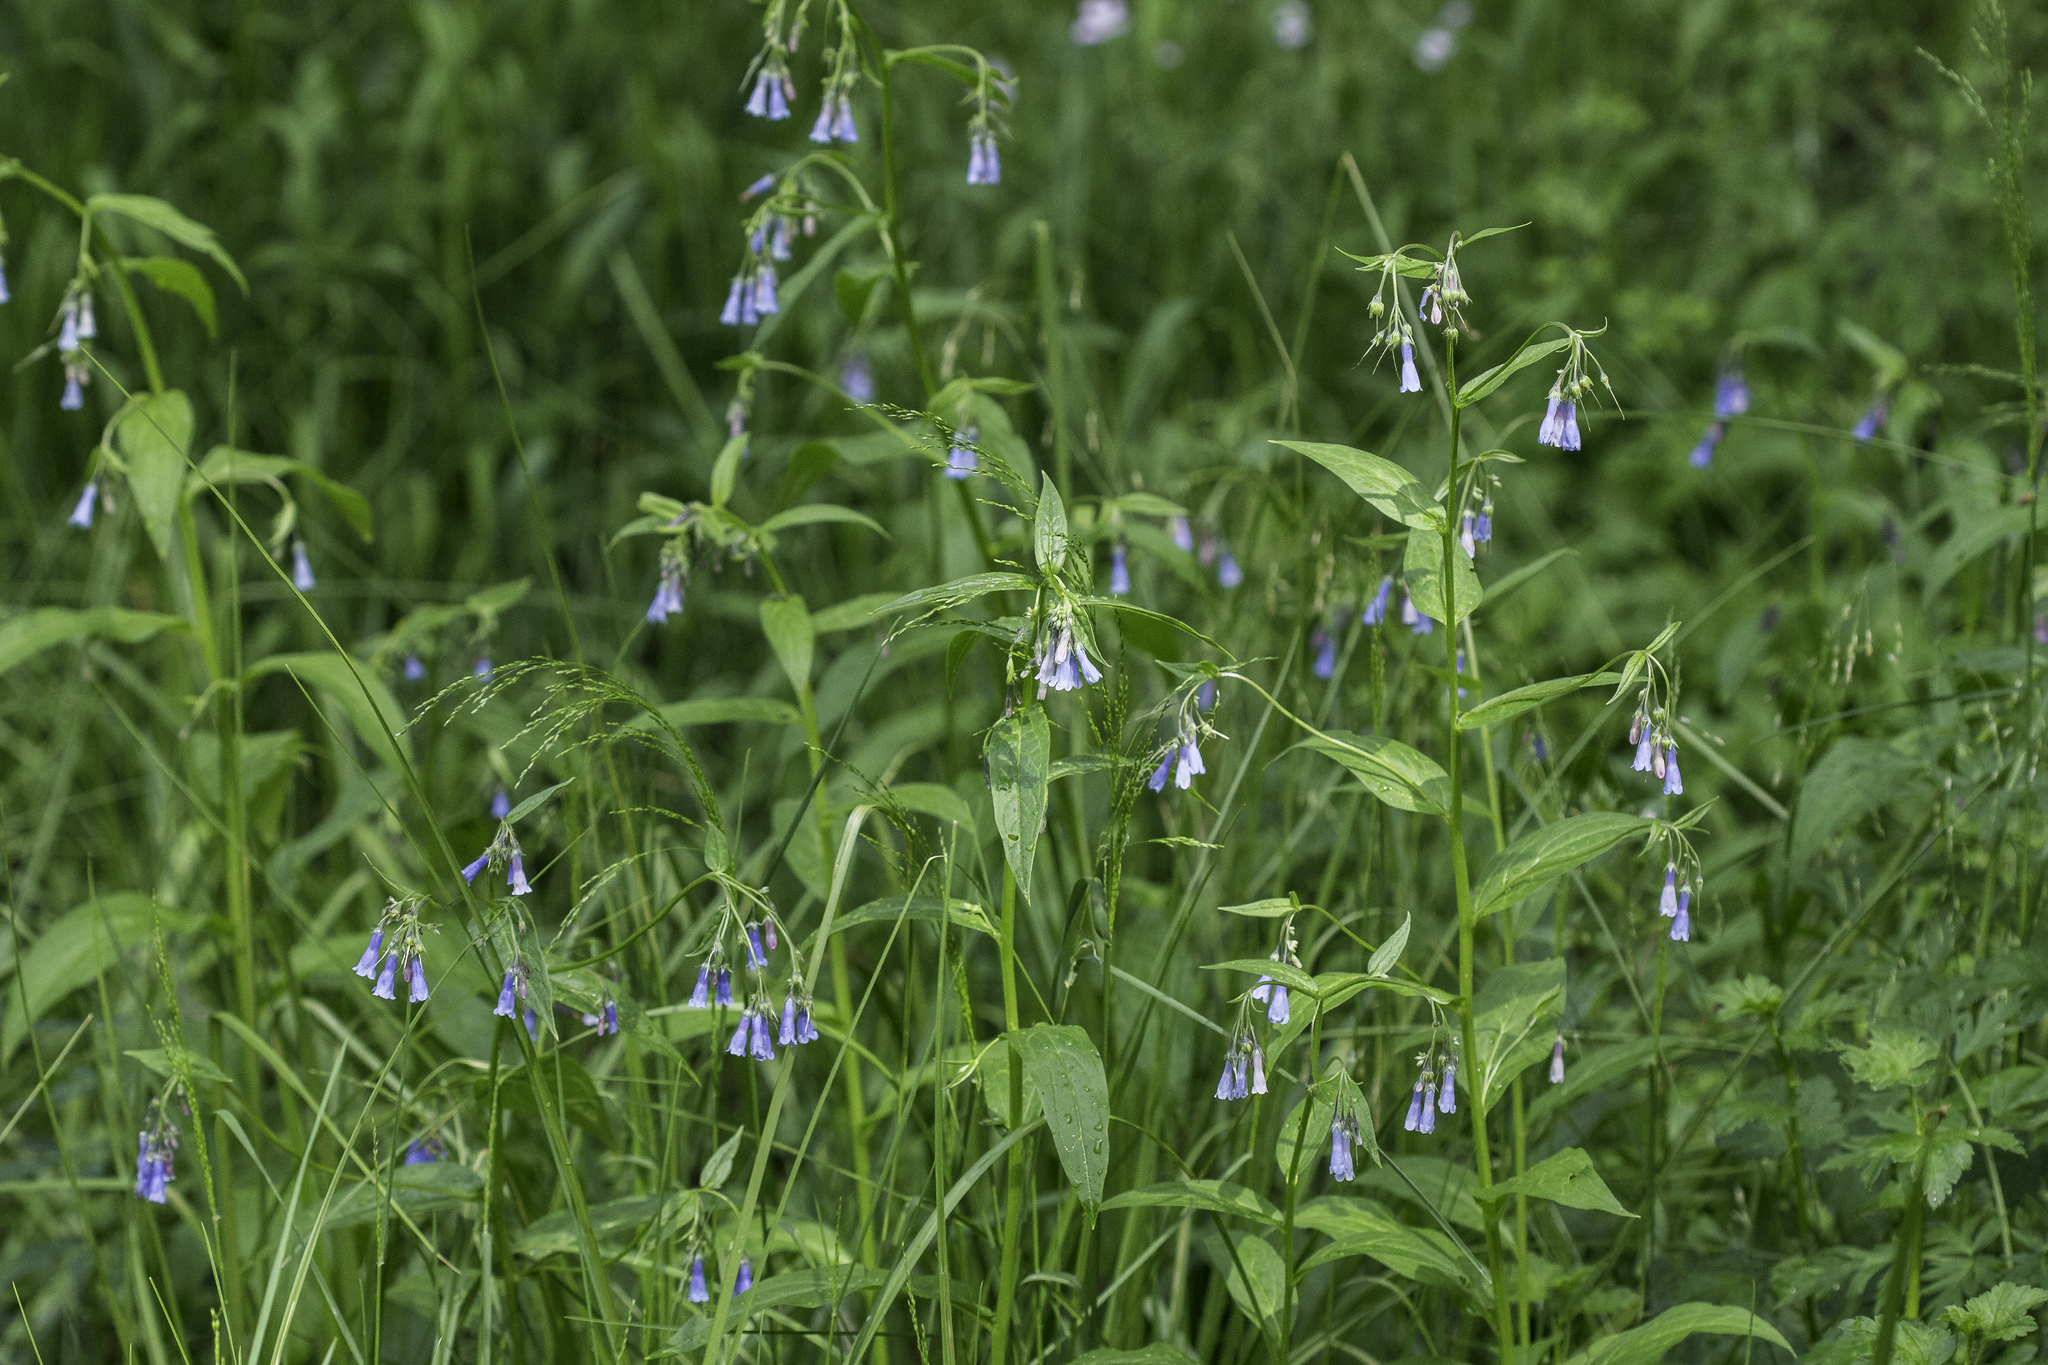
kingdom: Plantae
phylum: Tracheophyta
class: Magnoliopsida
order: Boraginales
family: Boraginaceae
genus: Mertensia
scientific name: Mertensia franciscana
